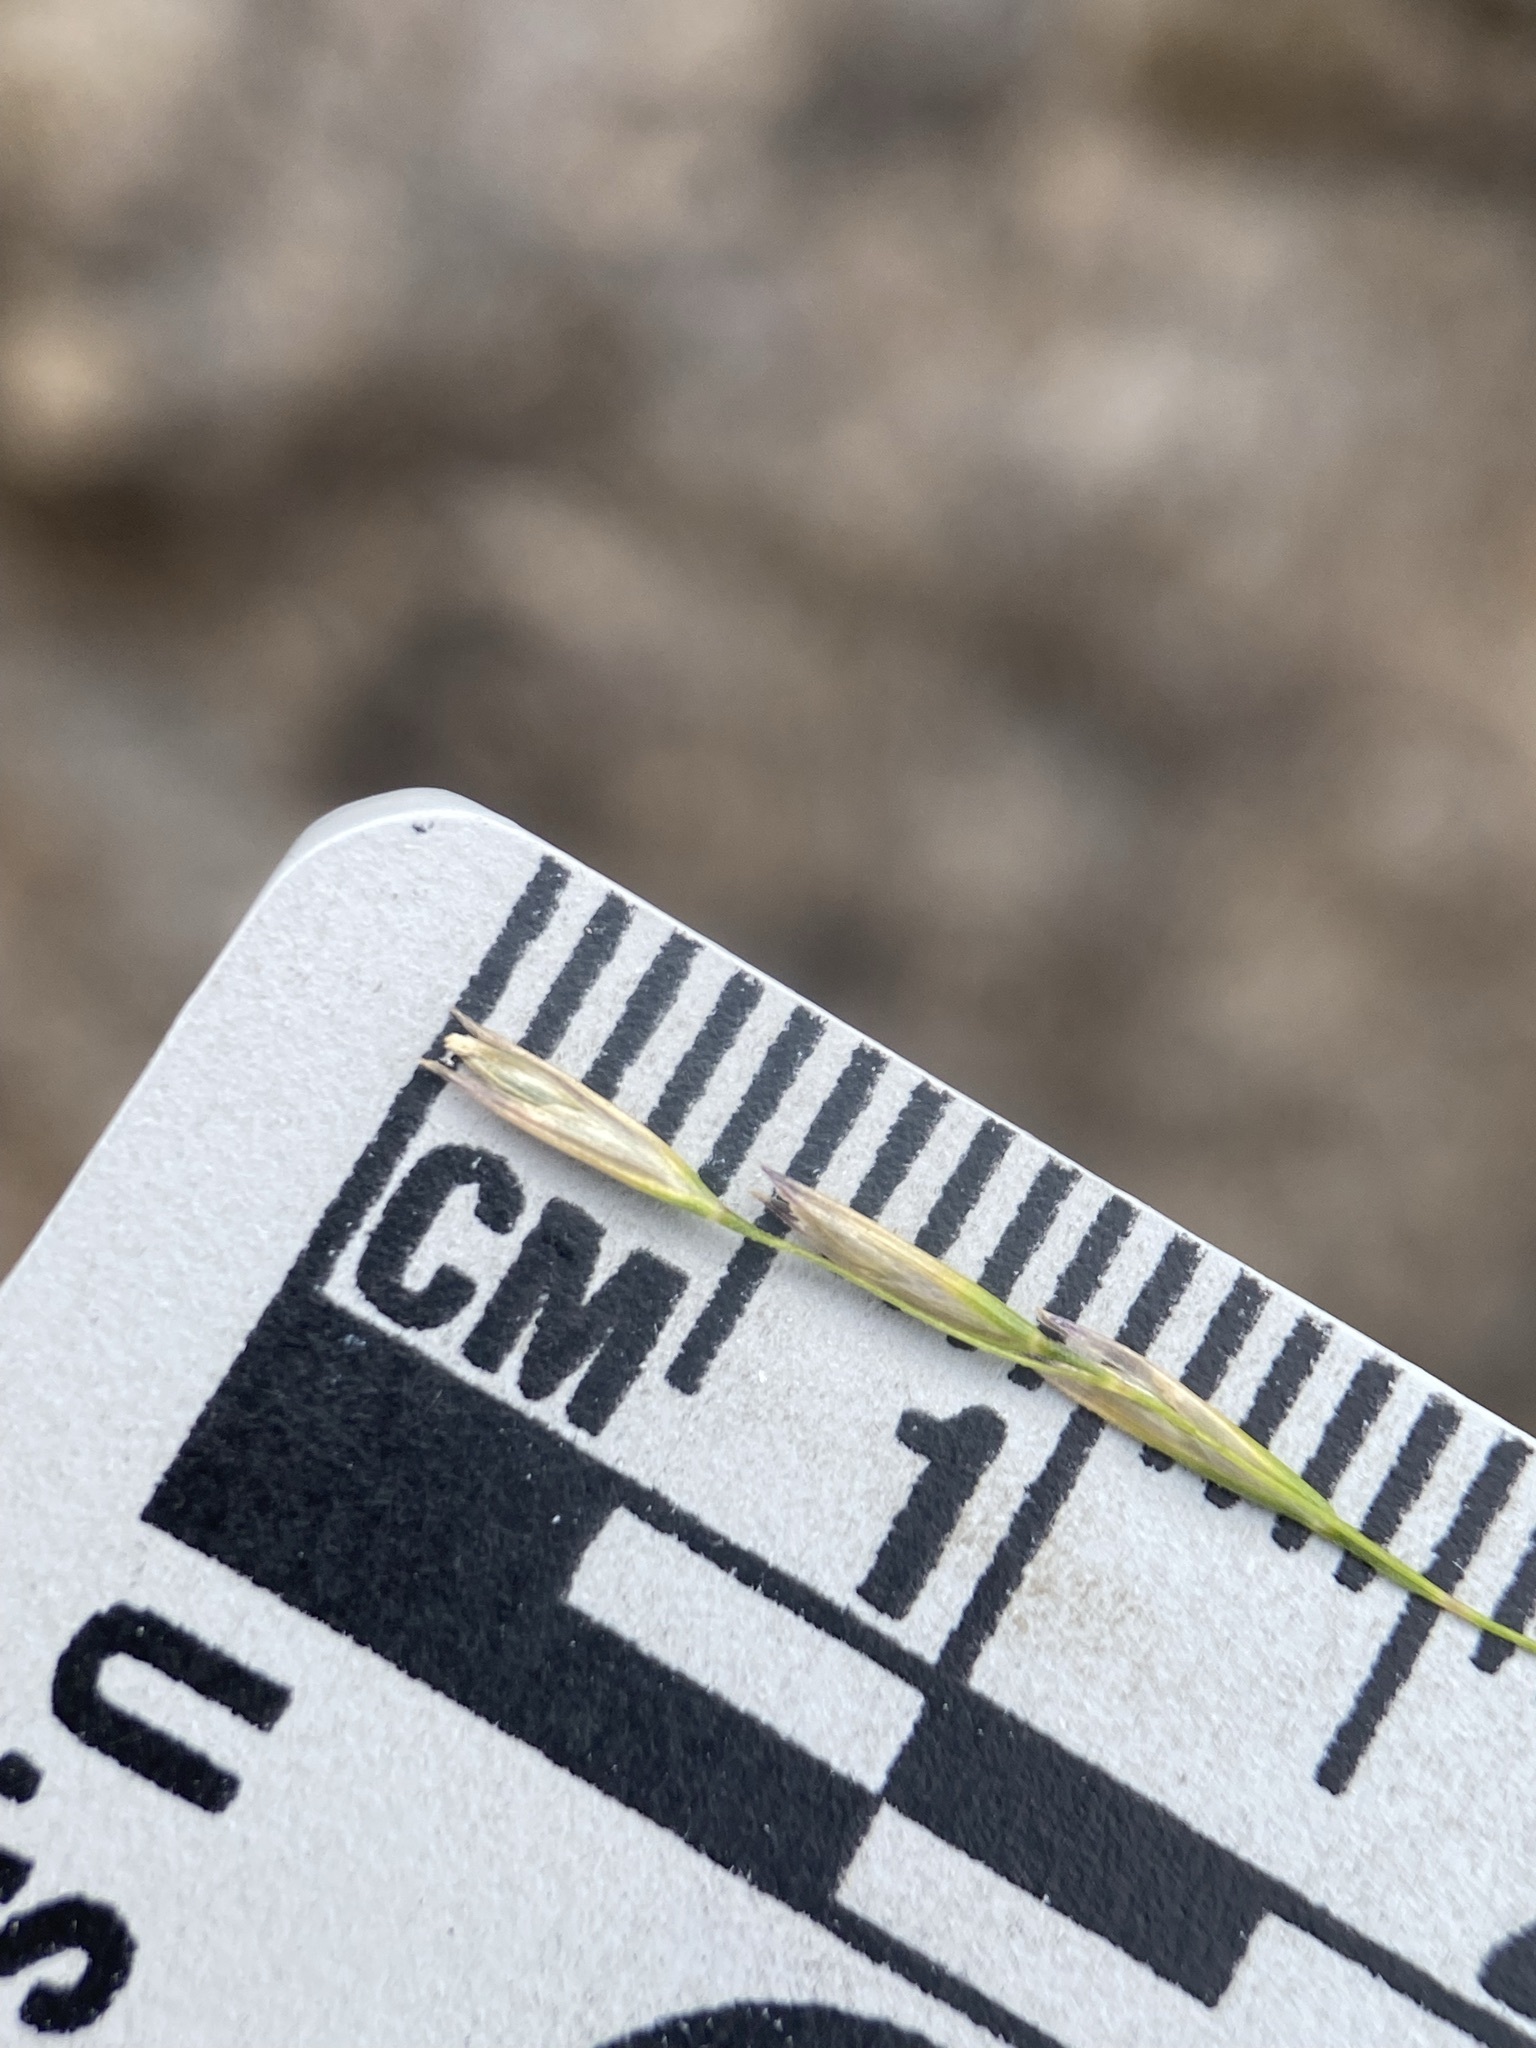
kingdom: Plantae
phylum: Tracheophyta
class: Liliopsida
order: Poales
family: Poaceae
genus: Deschampsia
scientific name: Deschampsia elongata
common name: Slender hairgrass
